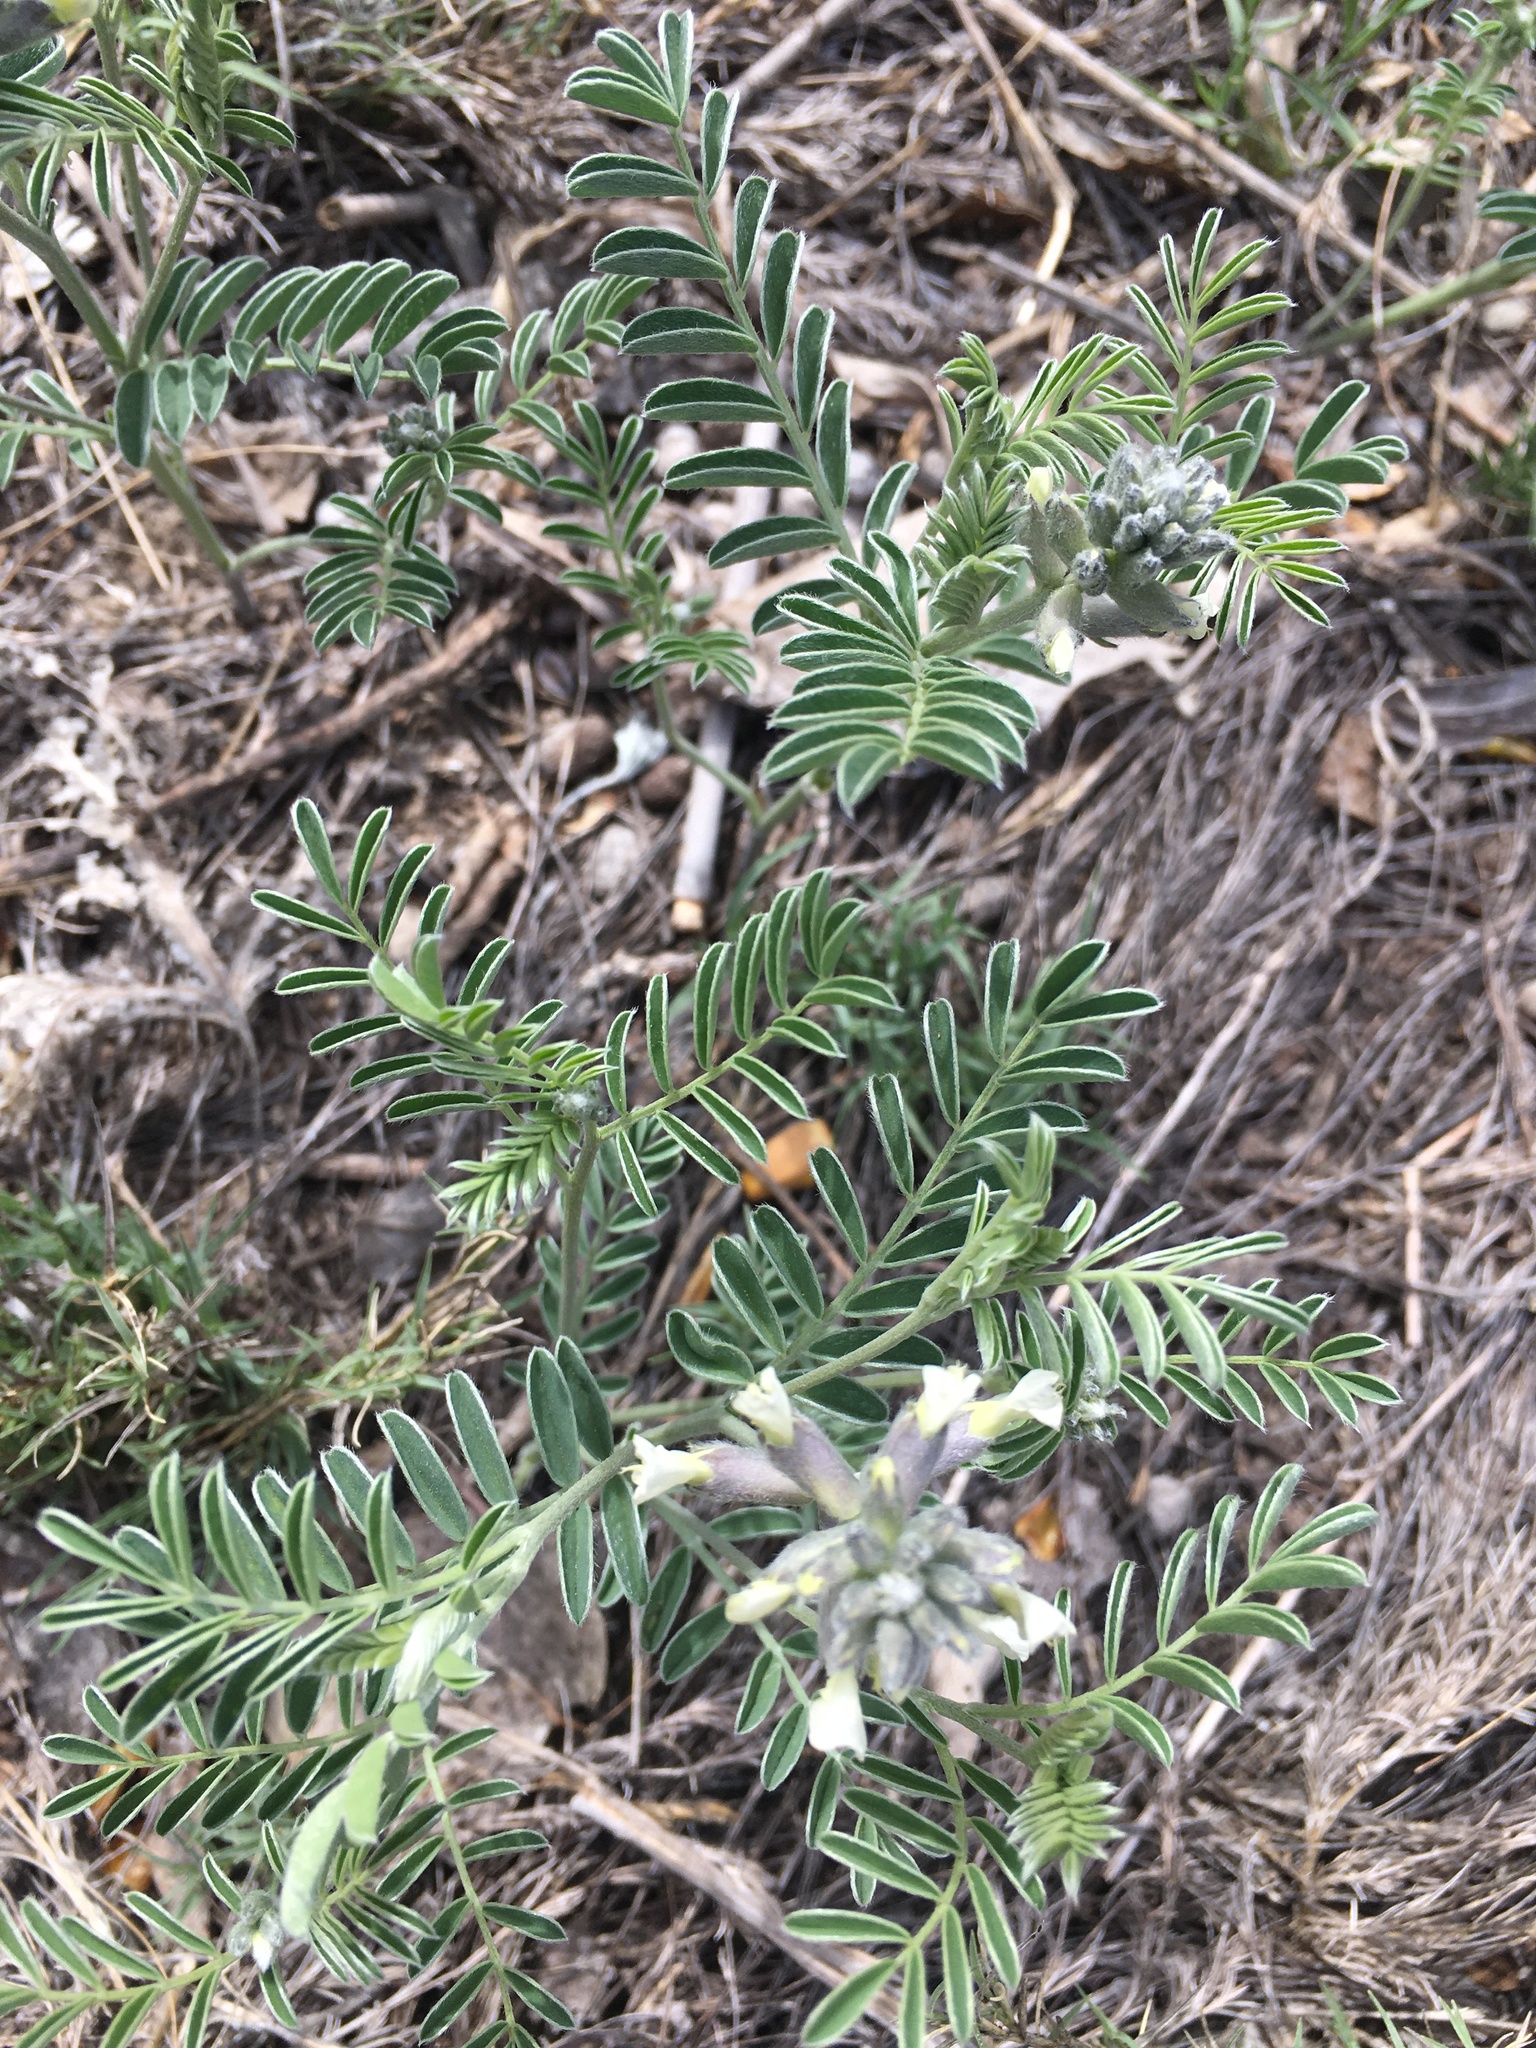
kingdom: Plantae
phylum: Tracheophyta
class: Magnoliopsida
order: Fabales
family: Fabaceae
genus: Sophora
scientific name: Sophora nuttalliana
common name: Silky sophora
